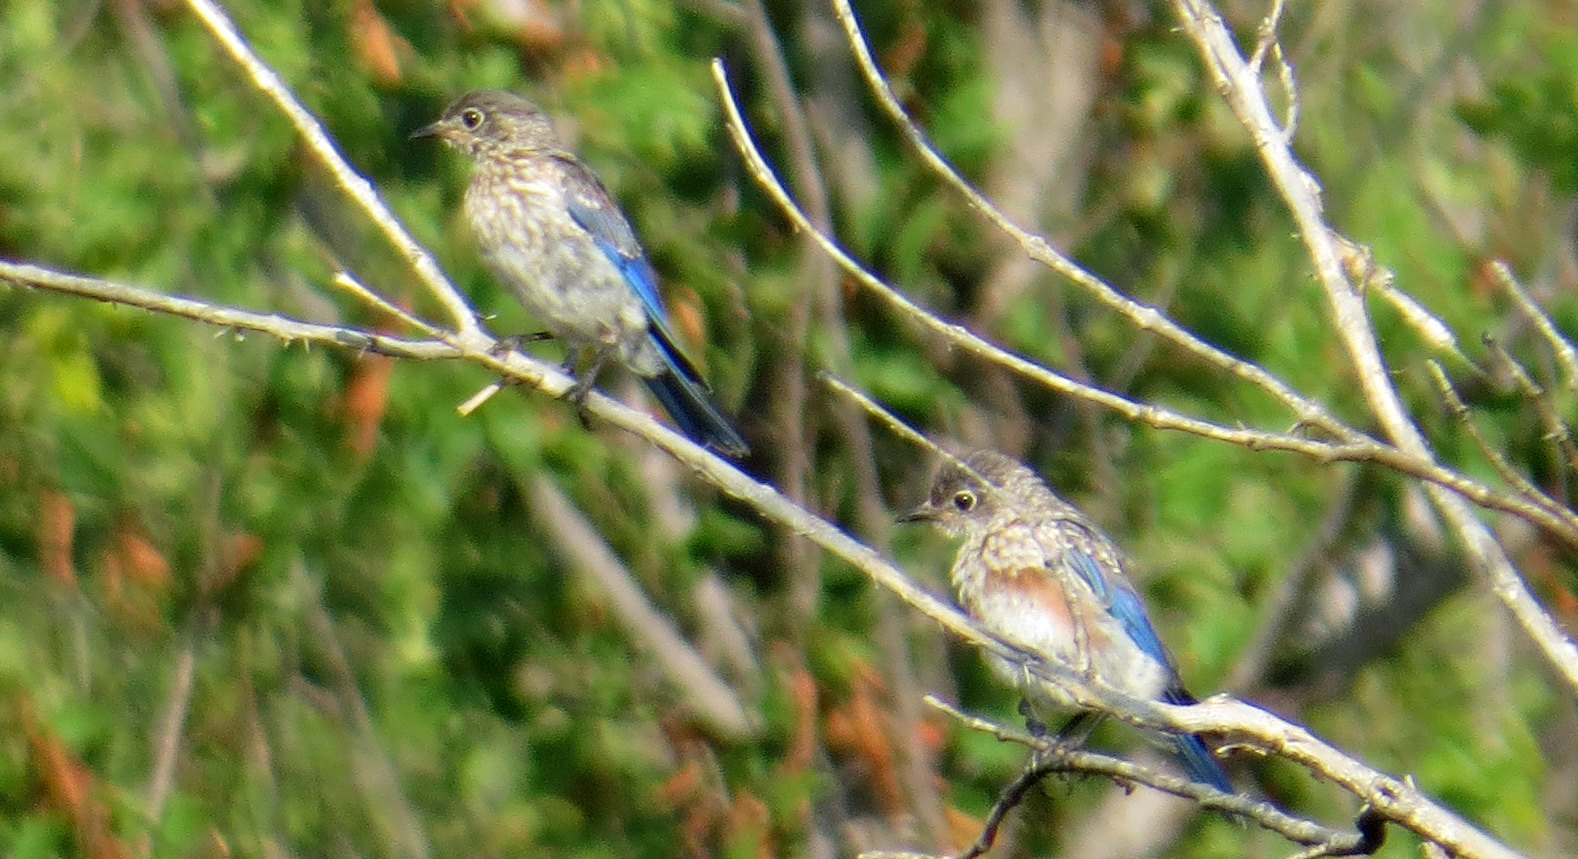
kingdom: Animalia
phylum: Chordata
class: Aves
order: Passeriformes
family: Turdidae
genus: Sialia
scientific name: Sialia sialis
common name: Eastern bluebird
